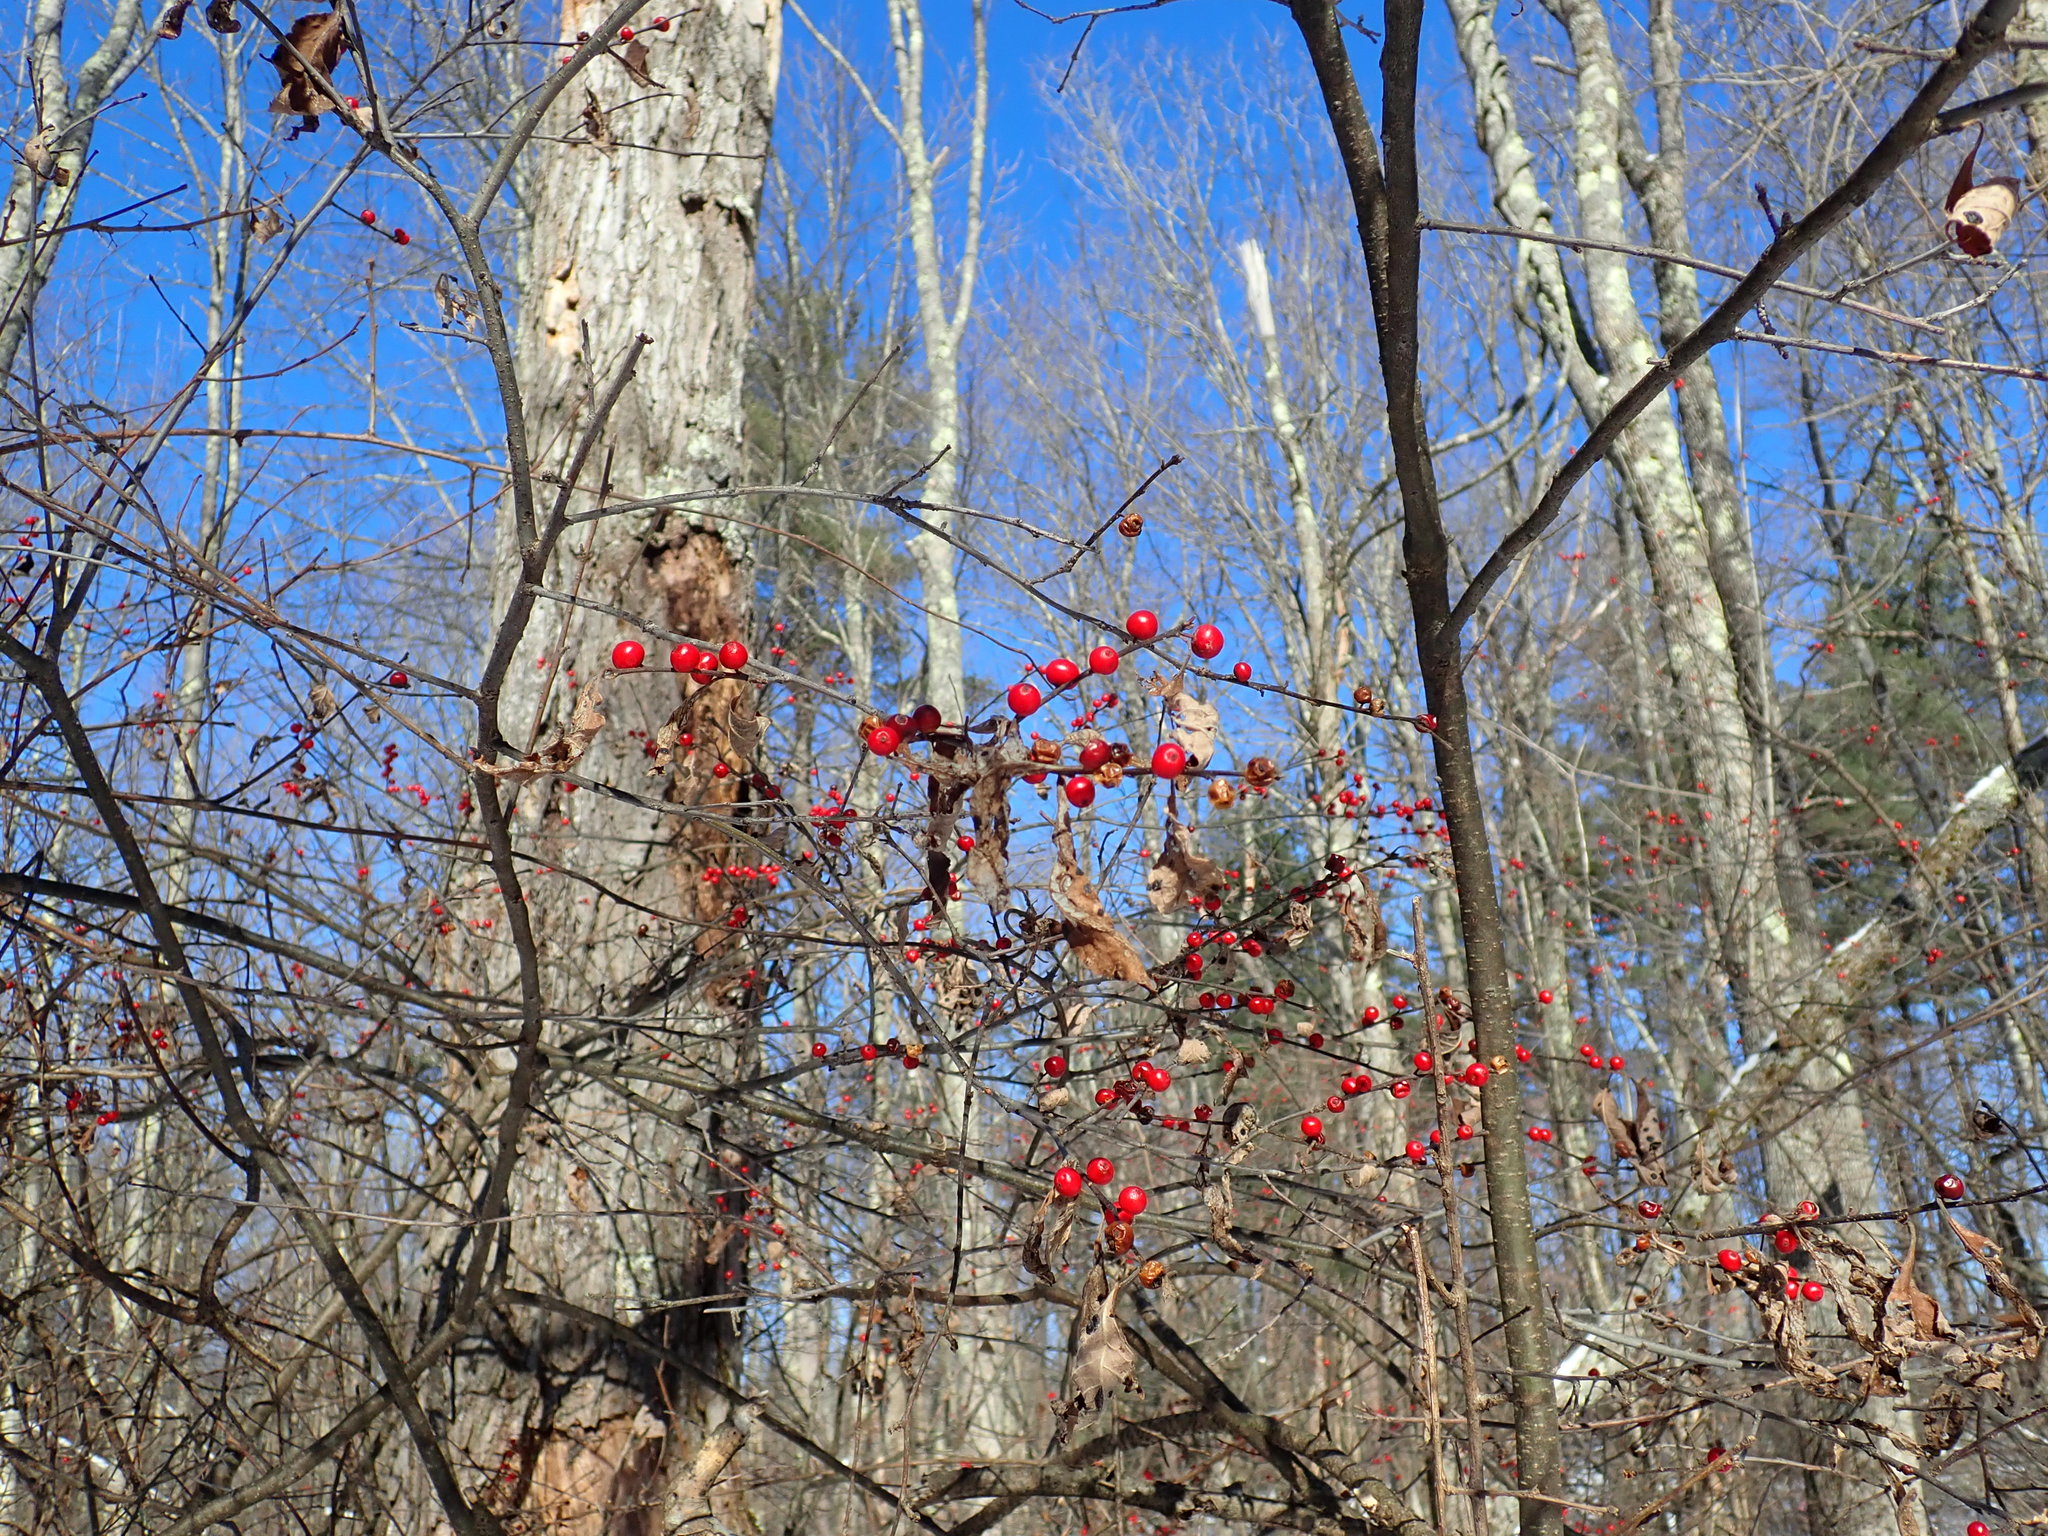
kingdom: Plantae
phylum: Tracheophyta
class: Magnoliopsida
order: Aquifoliales
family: Aquifoliaceae
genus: Ilex
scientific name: Ilex verticillata
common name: Virginia winterberry
